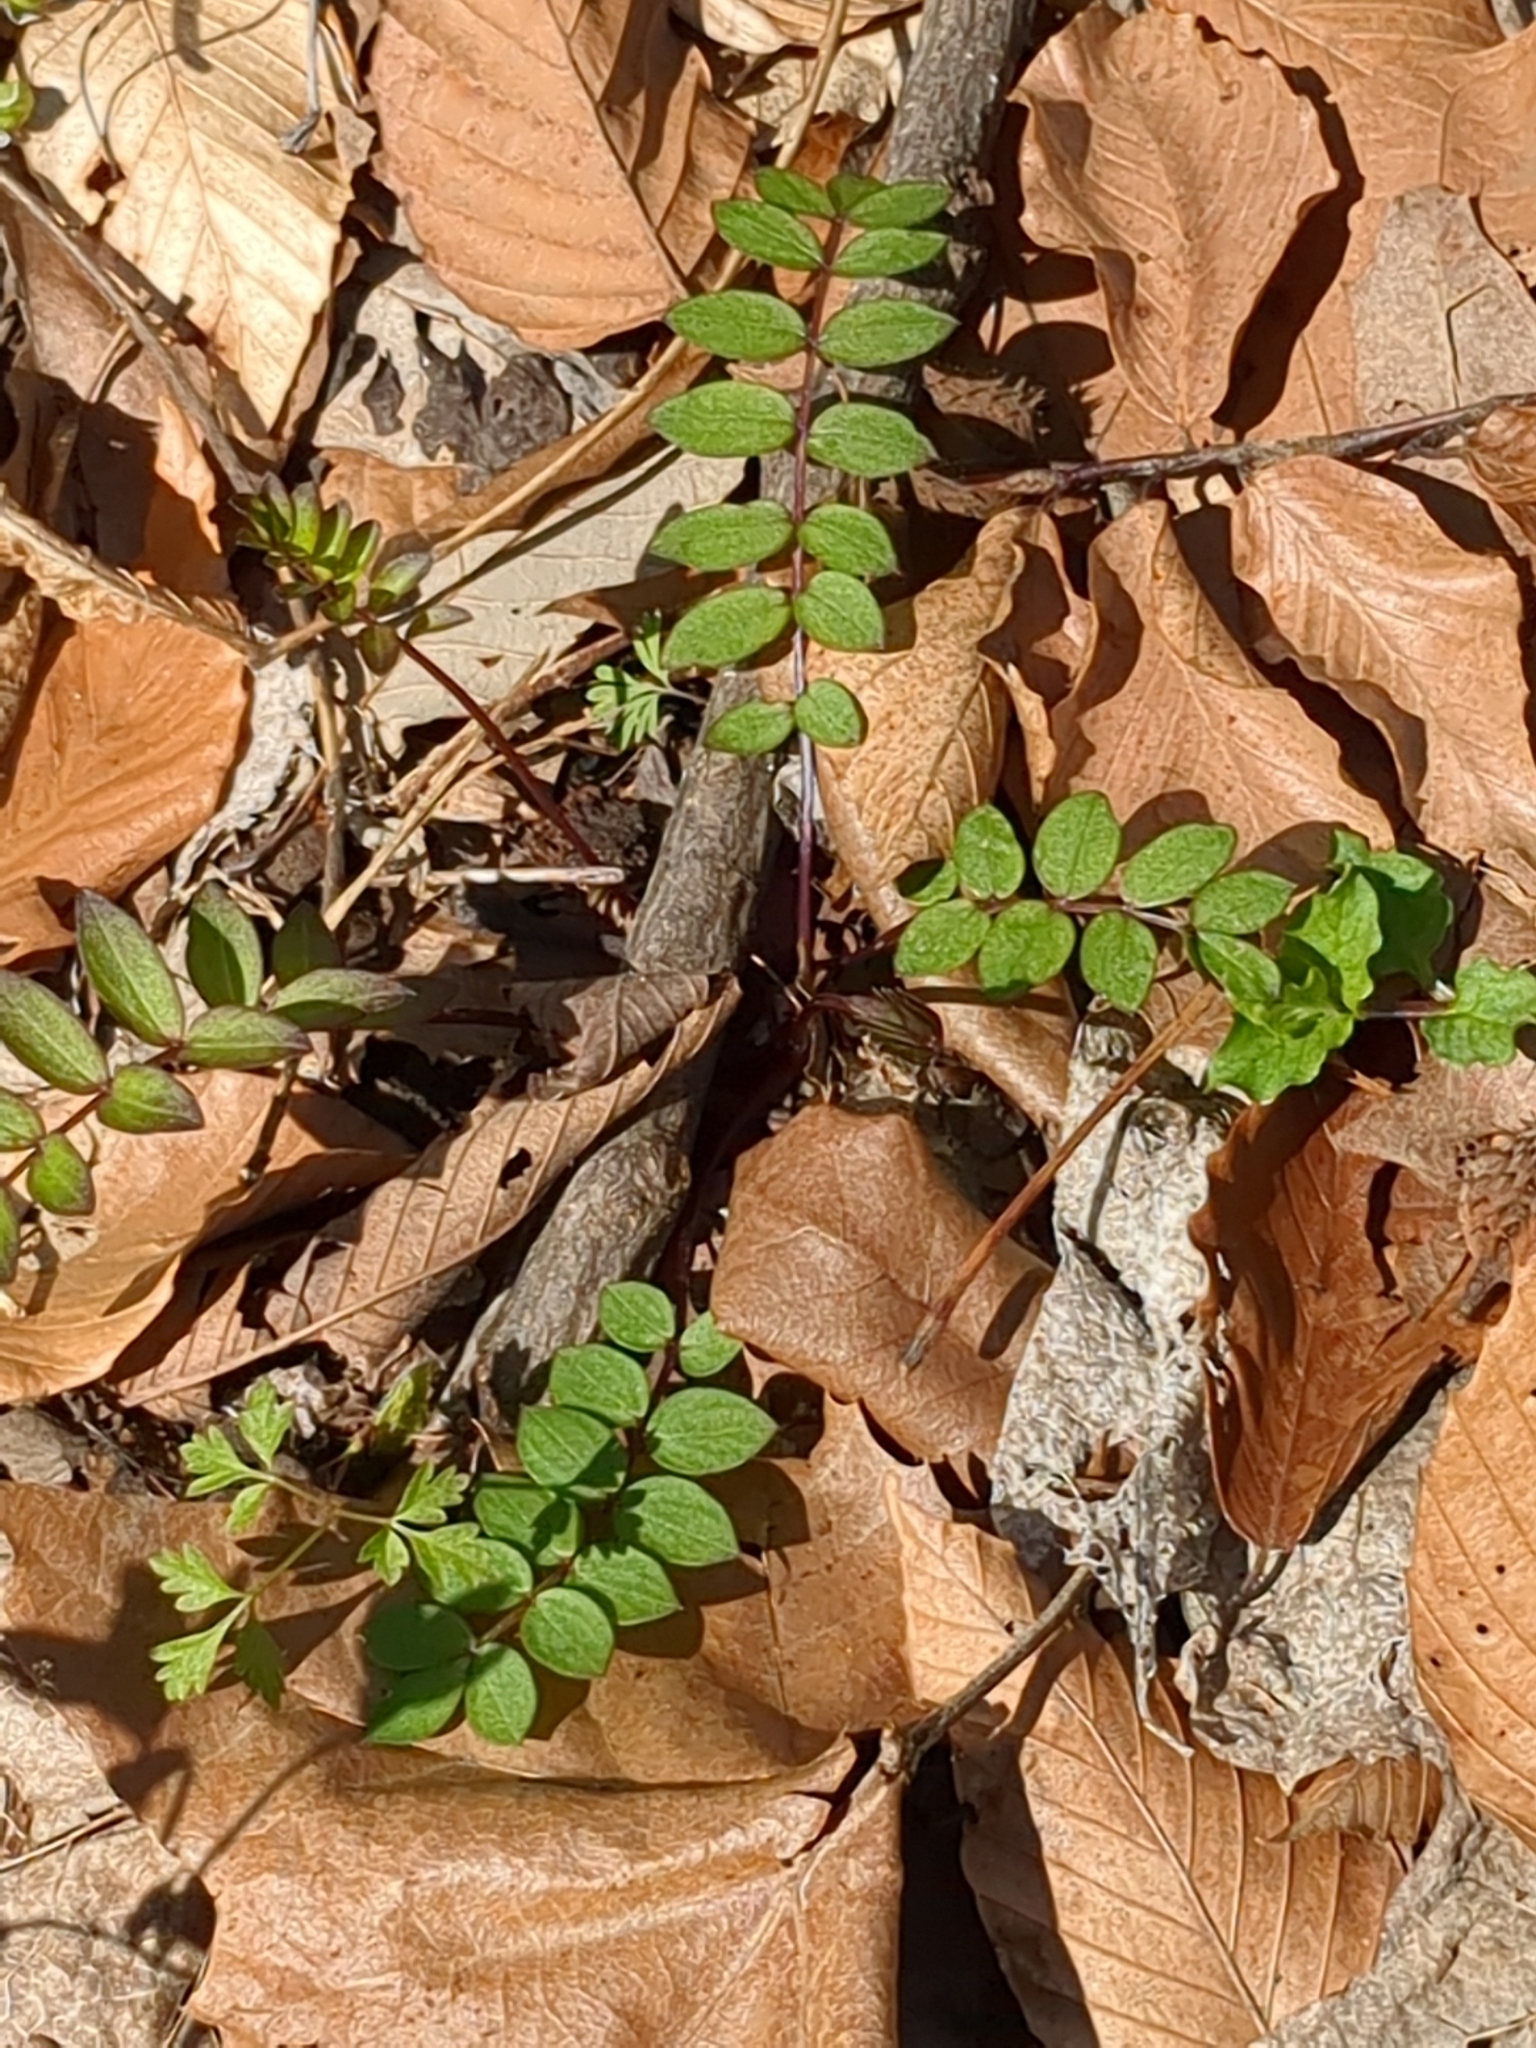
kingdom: Plantae
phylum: Tracheophyta
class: Magnoliopsida
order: Ericales
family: Polemoniaceae
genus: Polemonium
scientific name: Polemonium reptans
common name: Creeping jacob's-ladder
